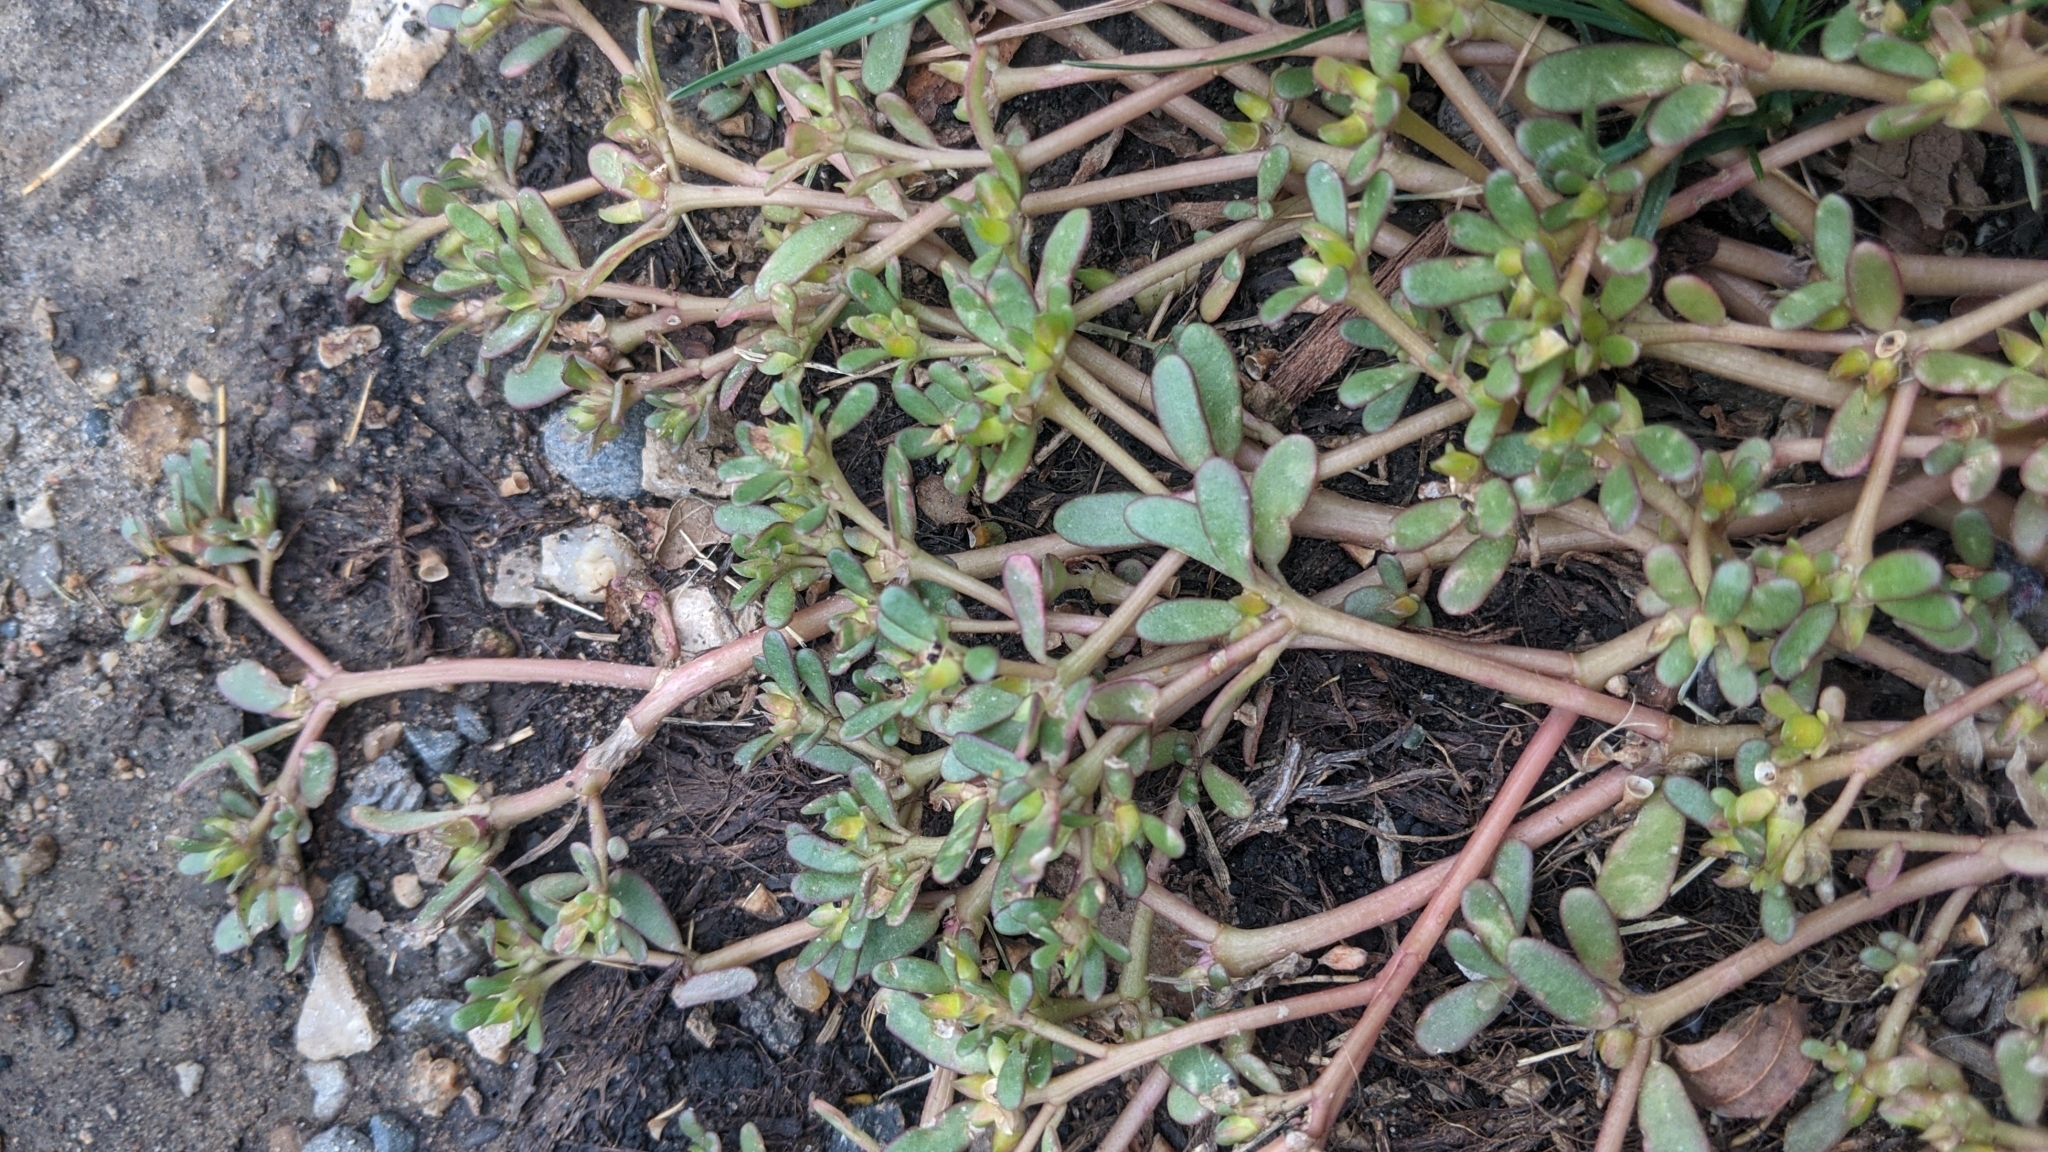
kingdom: Plantae
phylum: Tracheophyta
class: Magnoliopsida
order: Caryophyllales
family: Portulacaceae
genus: Portulaca
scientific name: Portulaca oleracea
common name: Common purslane
